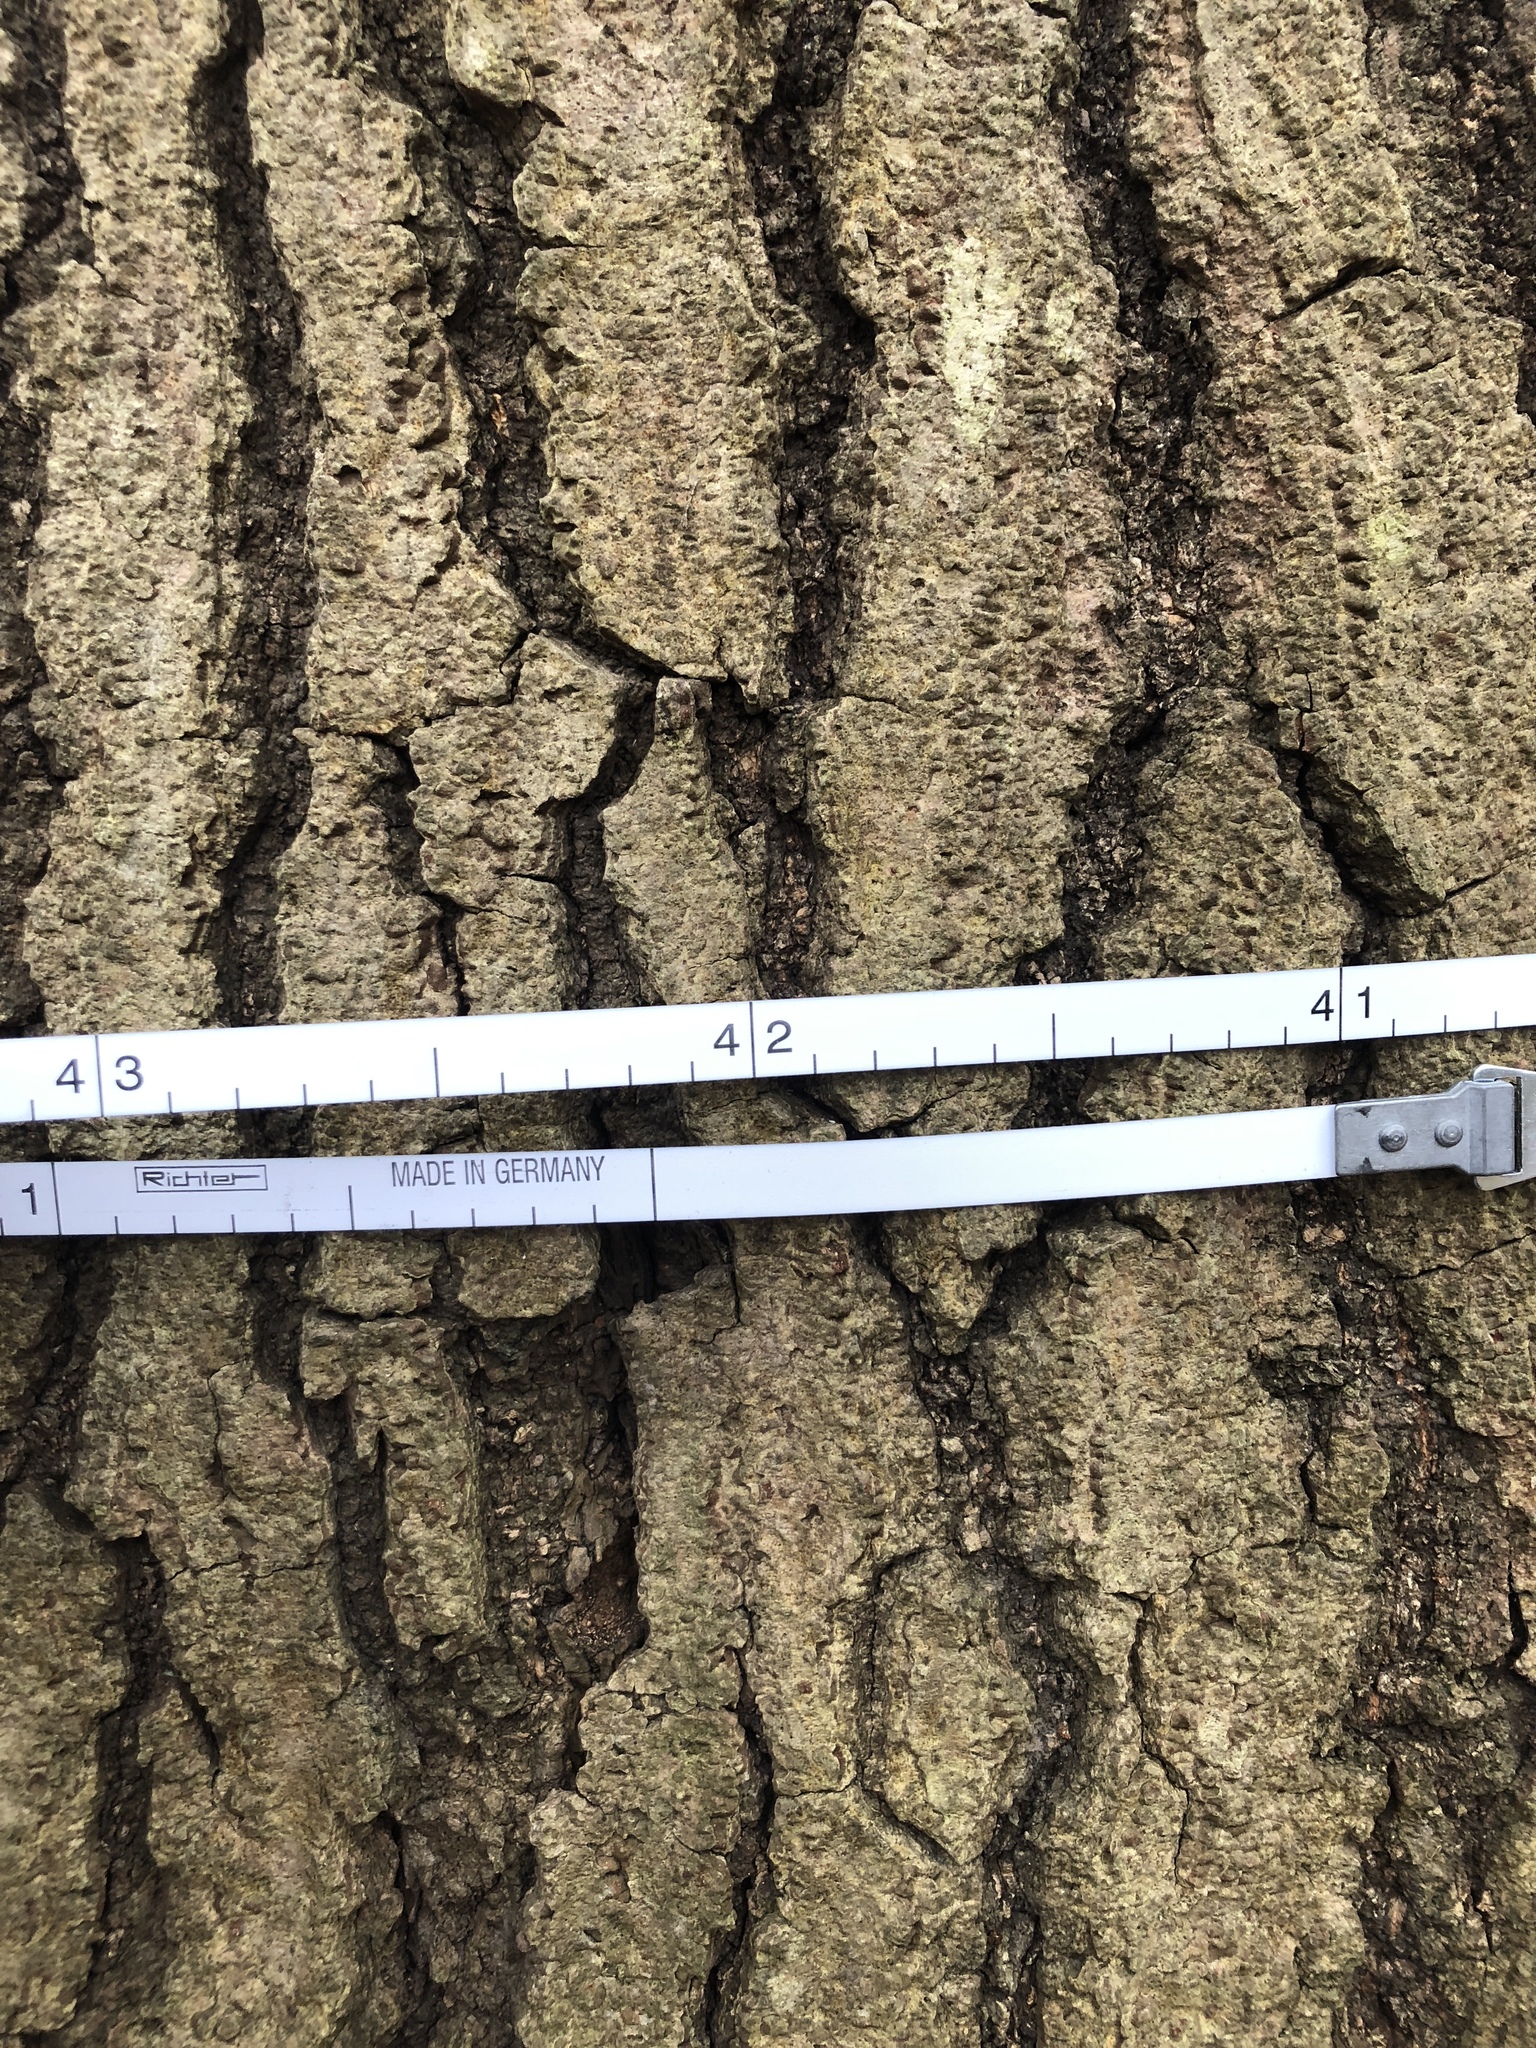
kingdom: Plantae
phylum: Tracheophyta
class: Magnoliopsida
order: Fagales
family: Fagaceae
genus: Quercus
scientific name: Quercus rubra
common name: Red oak
